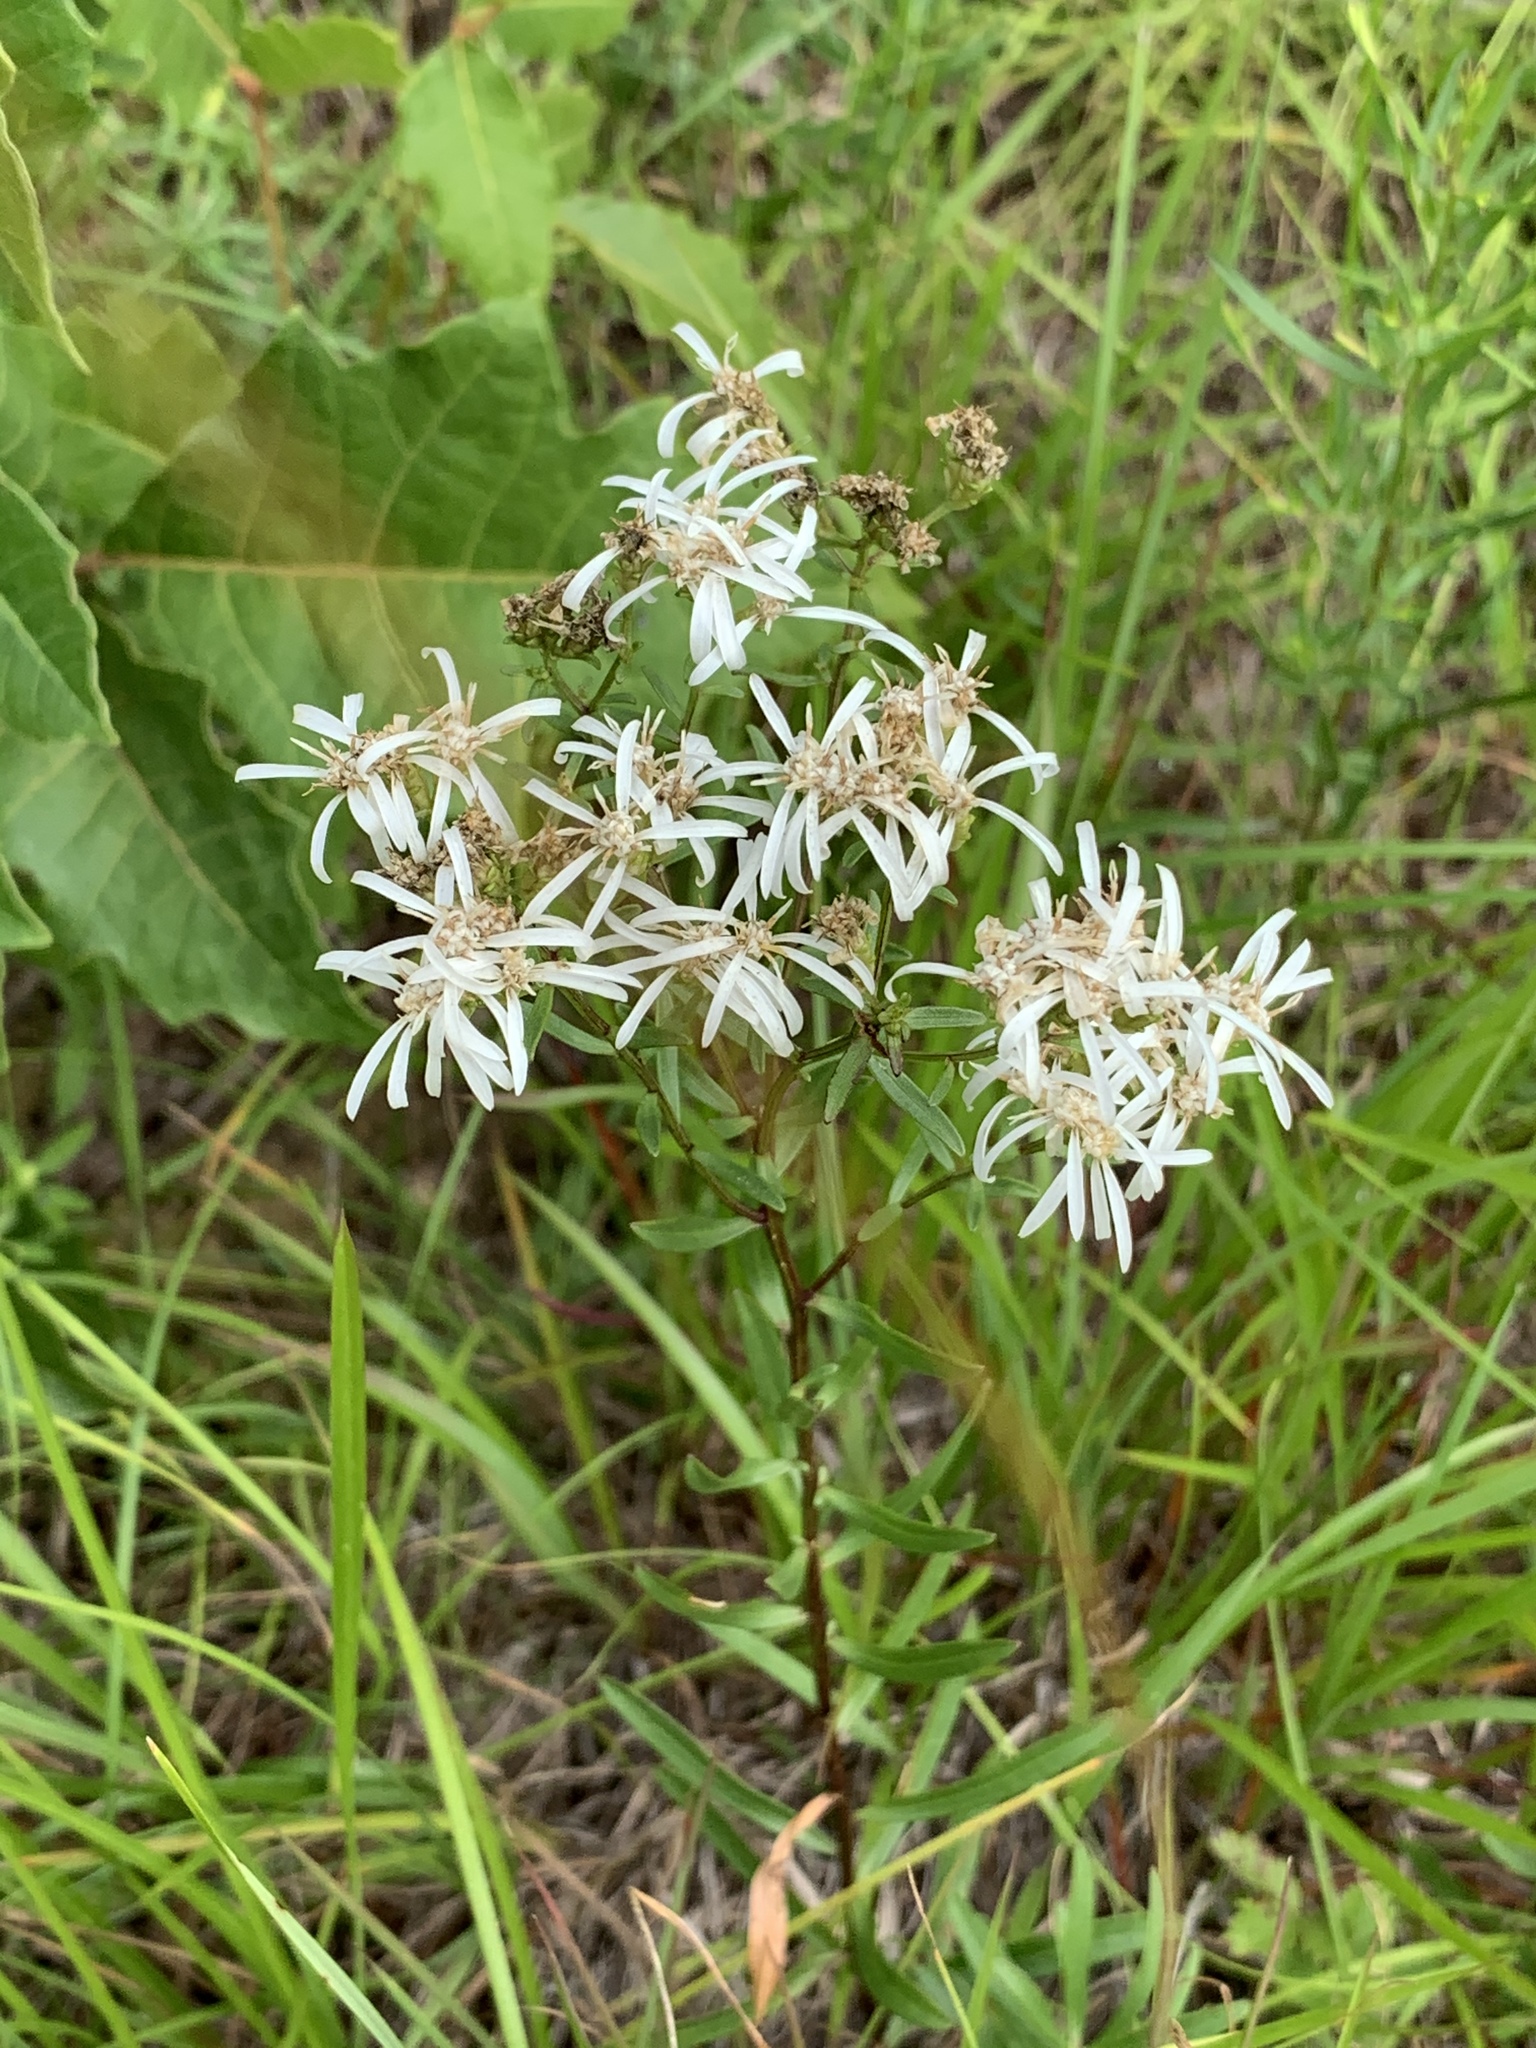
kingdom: Plantae
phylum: Tracheophyta
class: Magnoliopsida
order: Asterales
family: Asteraceae
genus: Sericocarpus
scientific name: Sericocarpus linifolius
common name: Narrow-leaf aster
